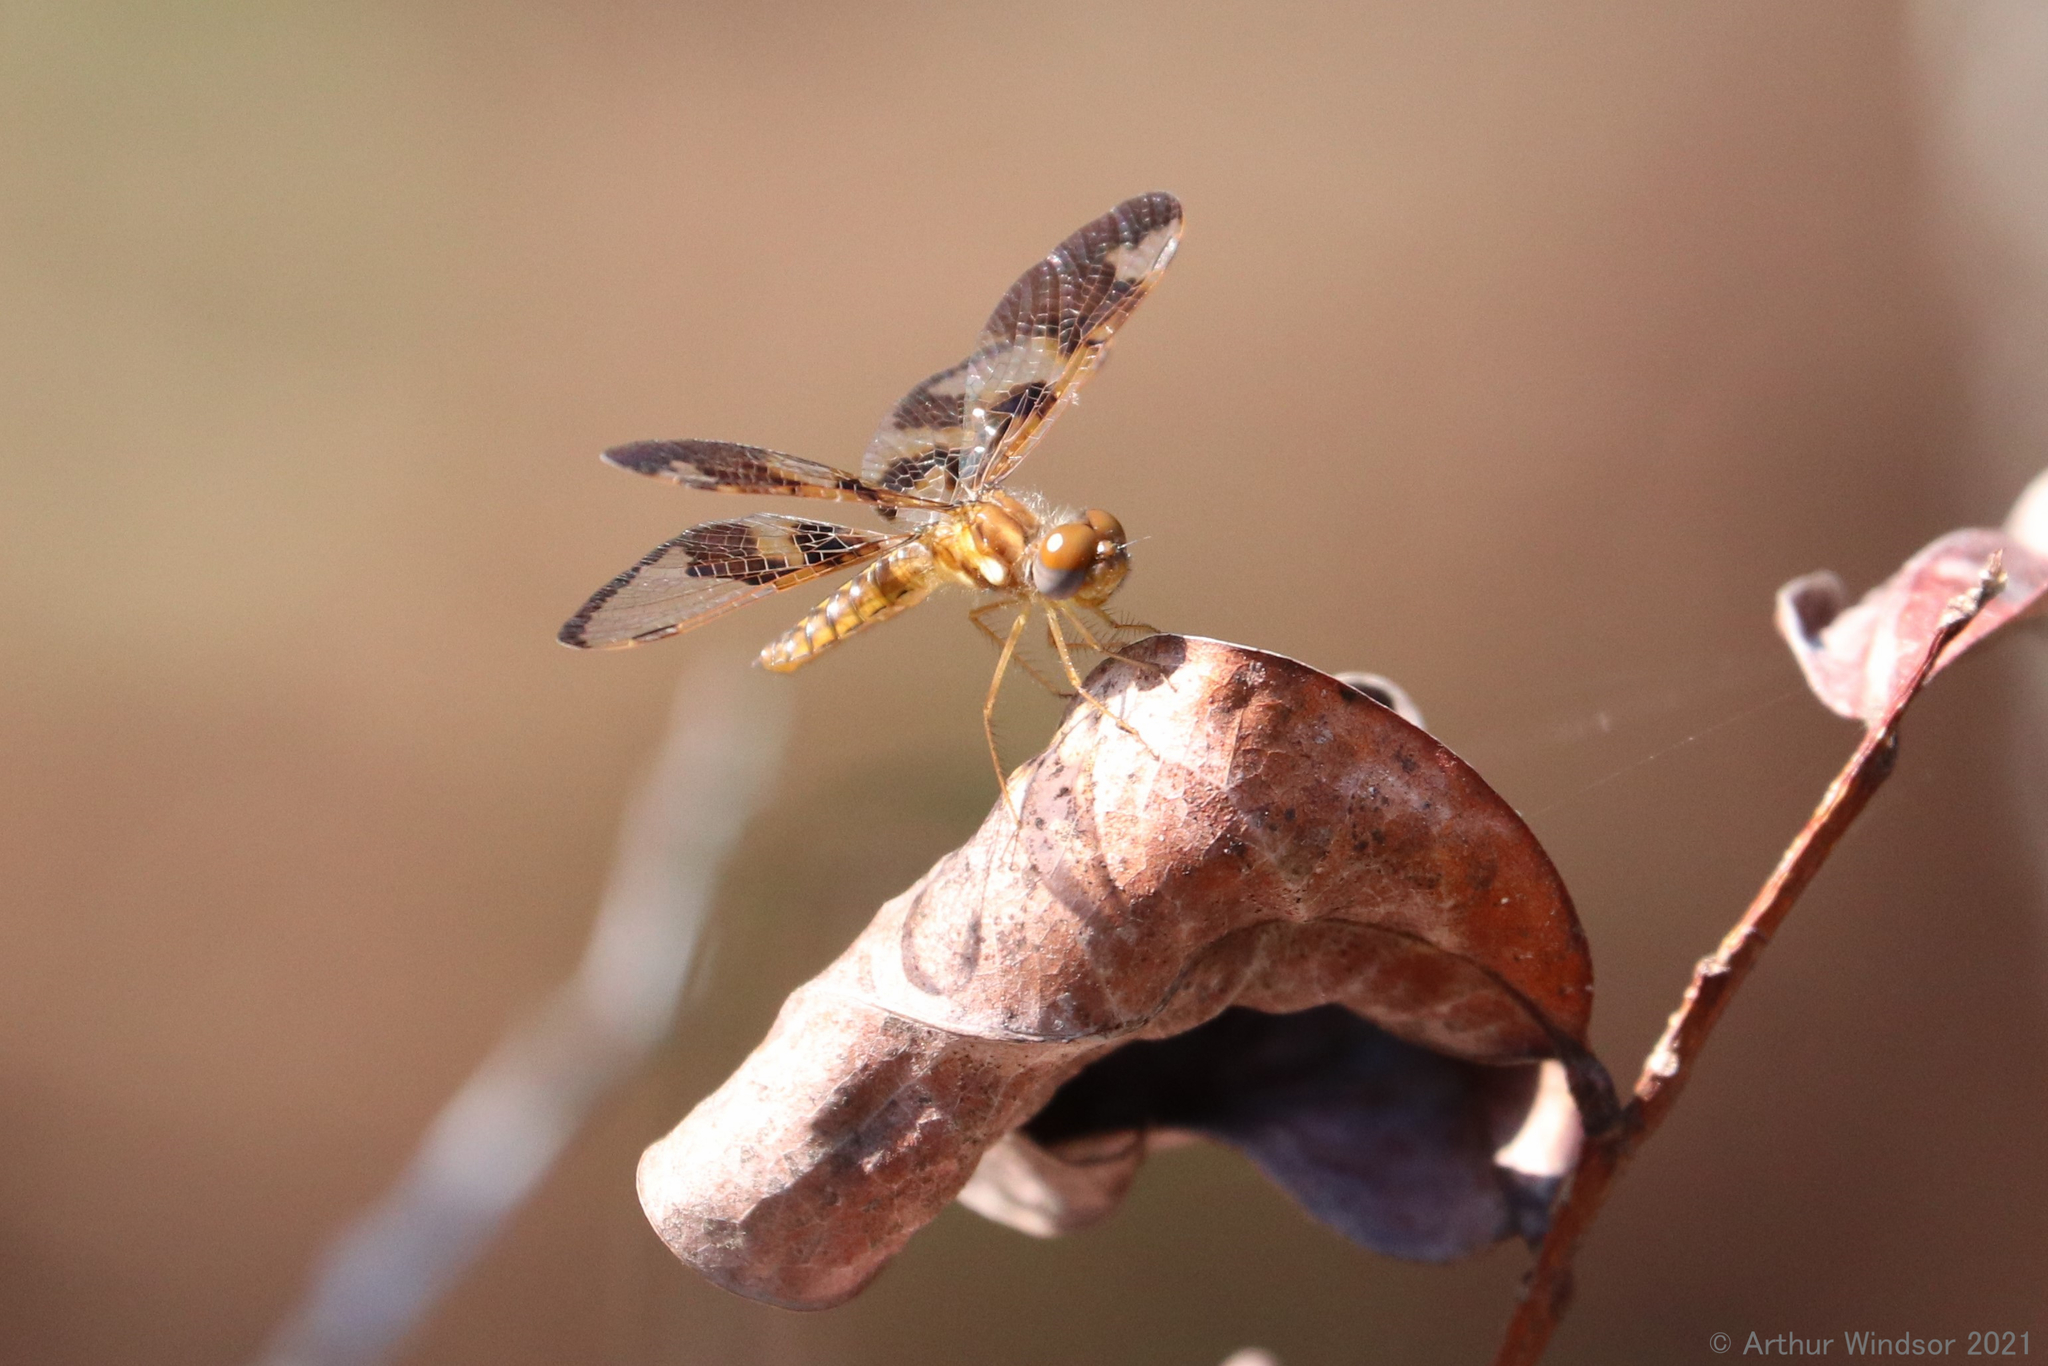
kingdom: Animalia
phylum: Arthropoda
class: Insecta
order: Odonata
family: Libellulidae
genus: Perithemis
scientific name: Perithemis tenera
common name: Eastern amberwing
